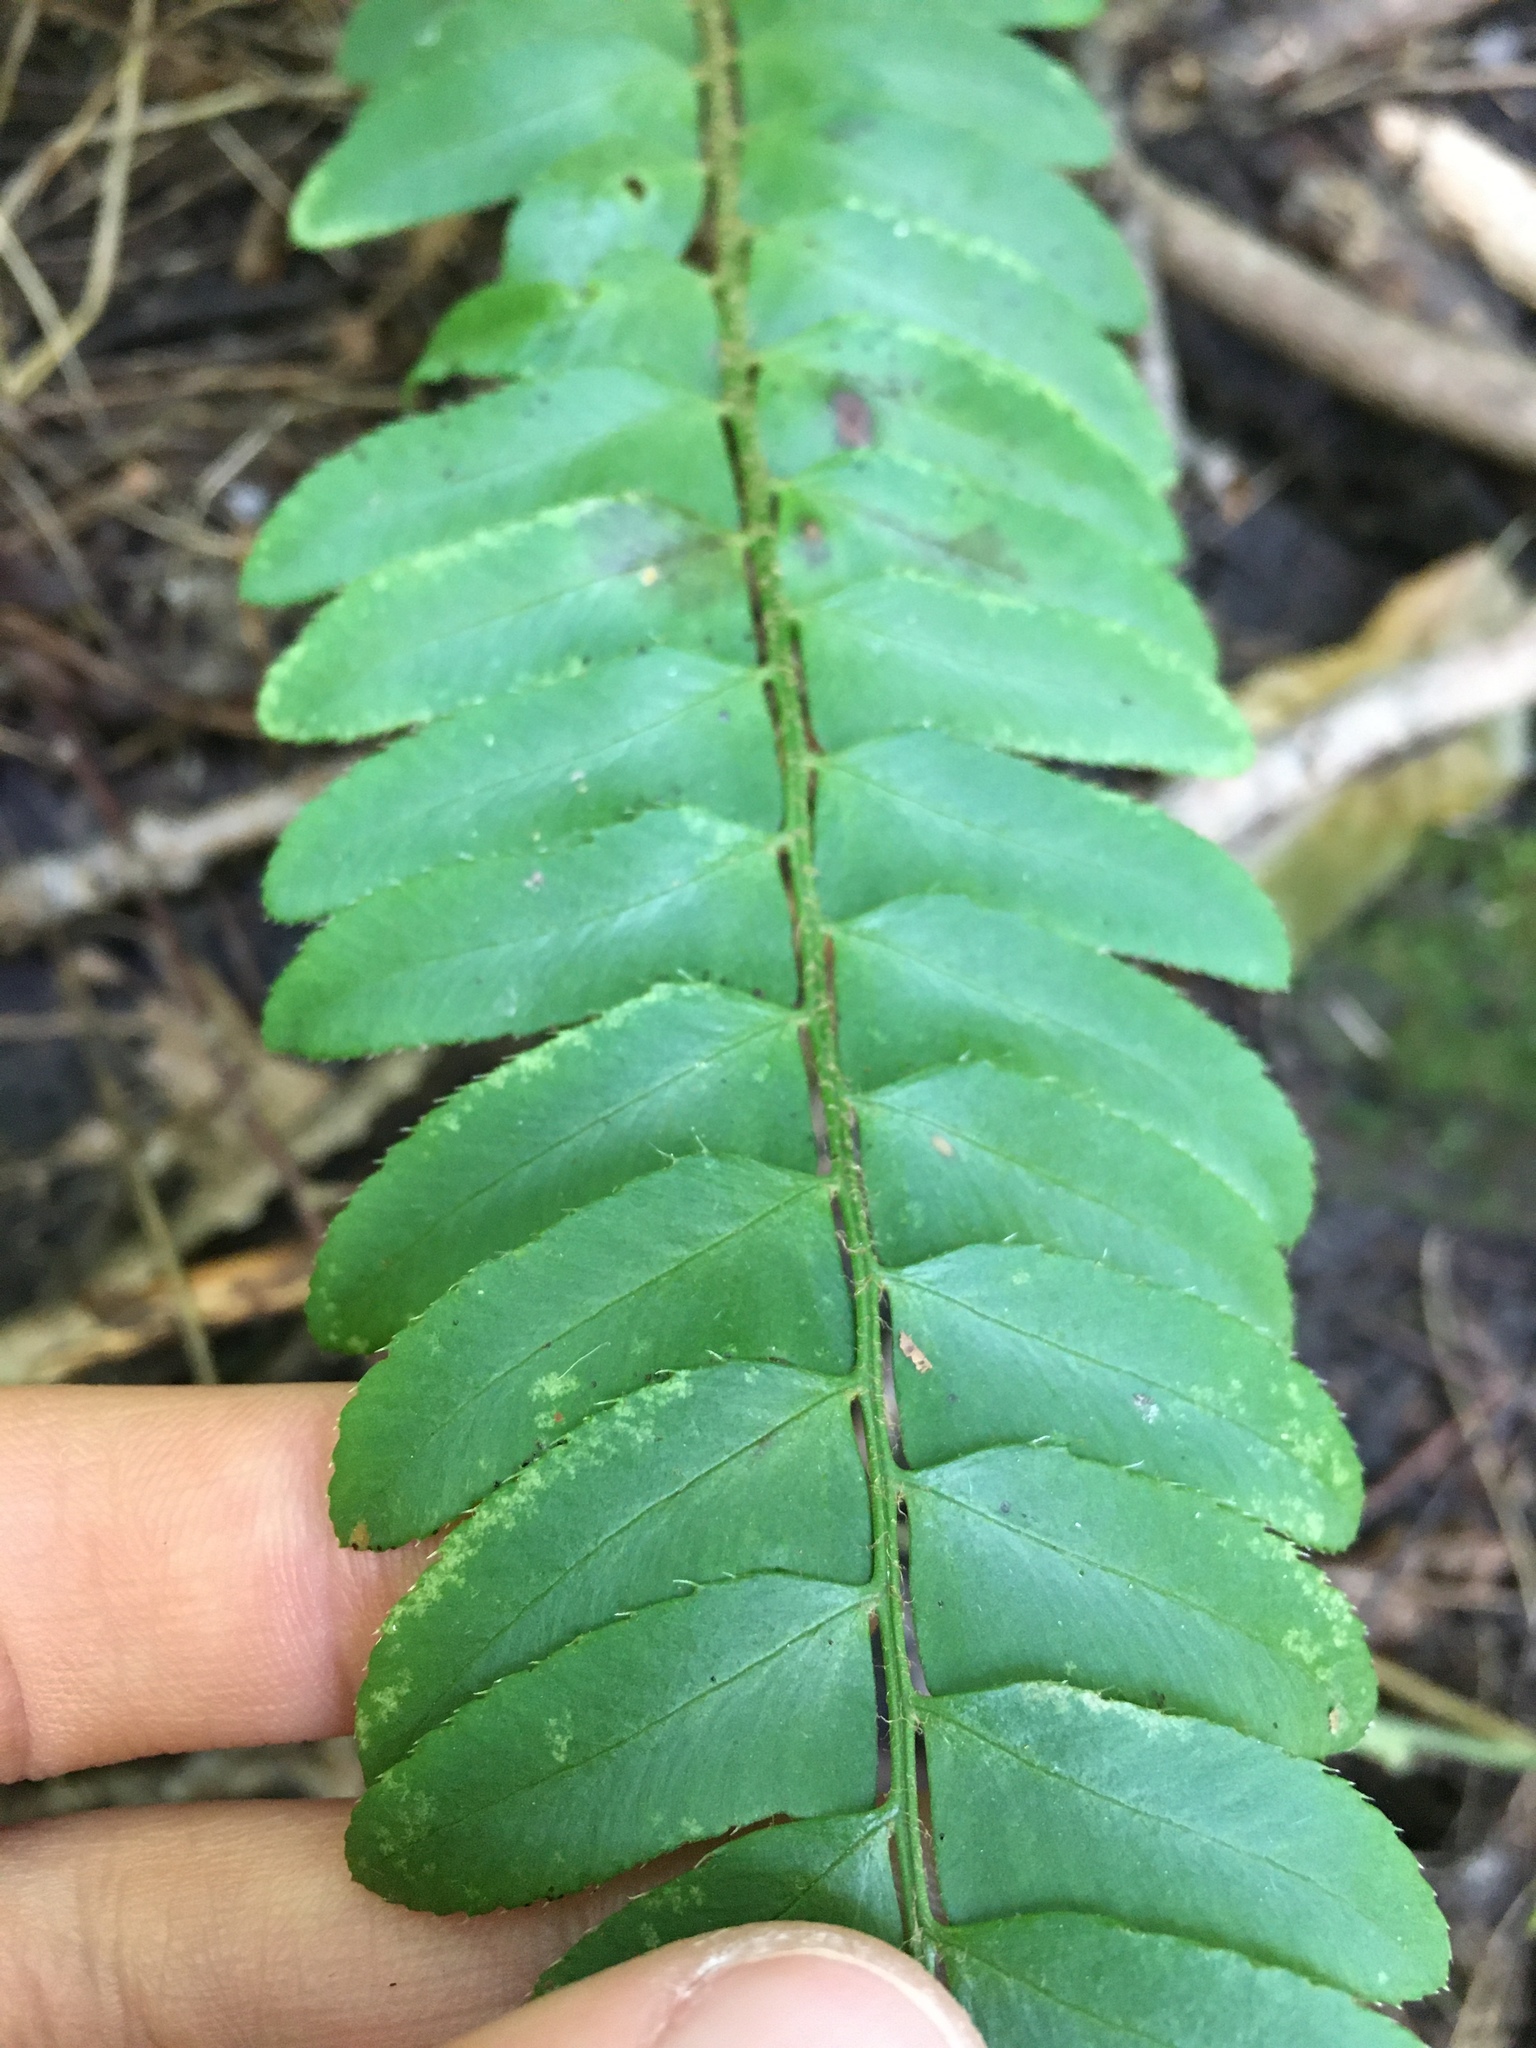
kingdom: Plantae
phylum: Tracheophyta
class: Polypodiopsida
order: Polypodiales
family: Dryopteridaceae
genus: Polystichum
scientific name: Polystichum acrostichoides
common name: Christmas fern
